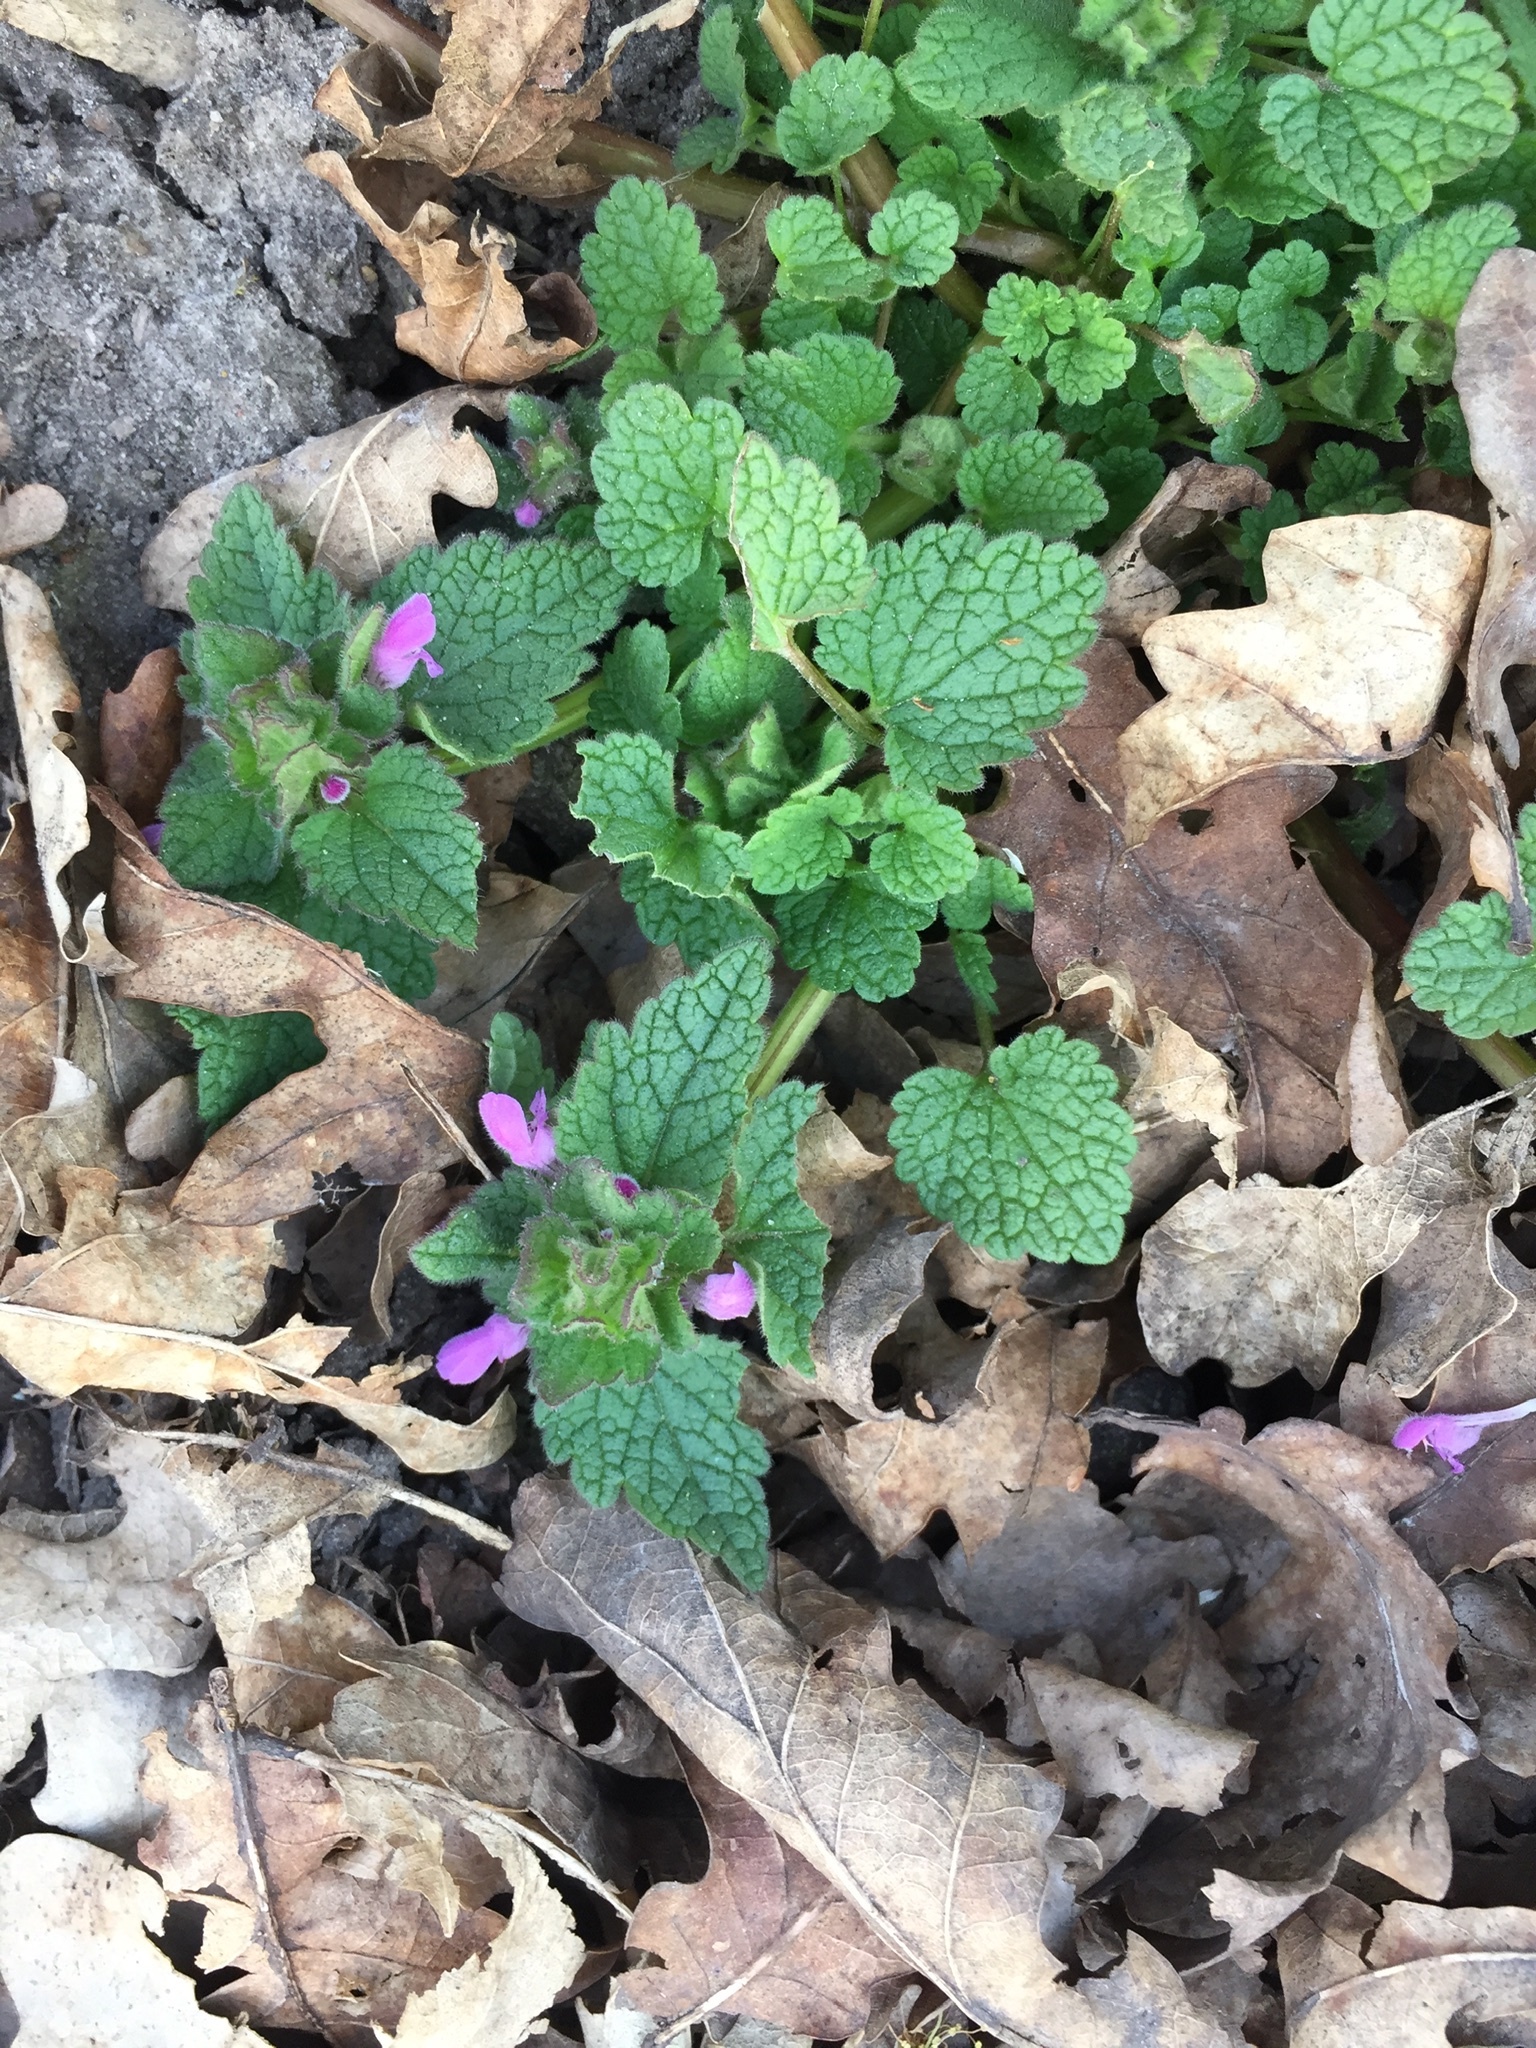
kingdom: Plantae
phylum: Tracheophyta
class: Magnoliopsida
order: Lamiales
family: Lamiaceae
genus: Lamium
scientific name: Lamium purpureum
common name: Red dead-nettle
